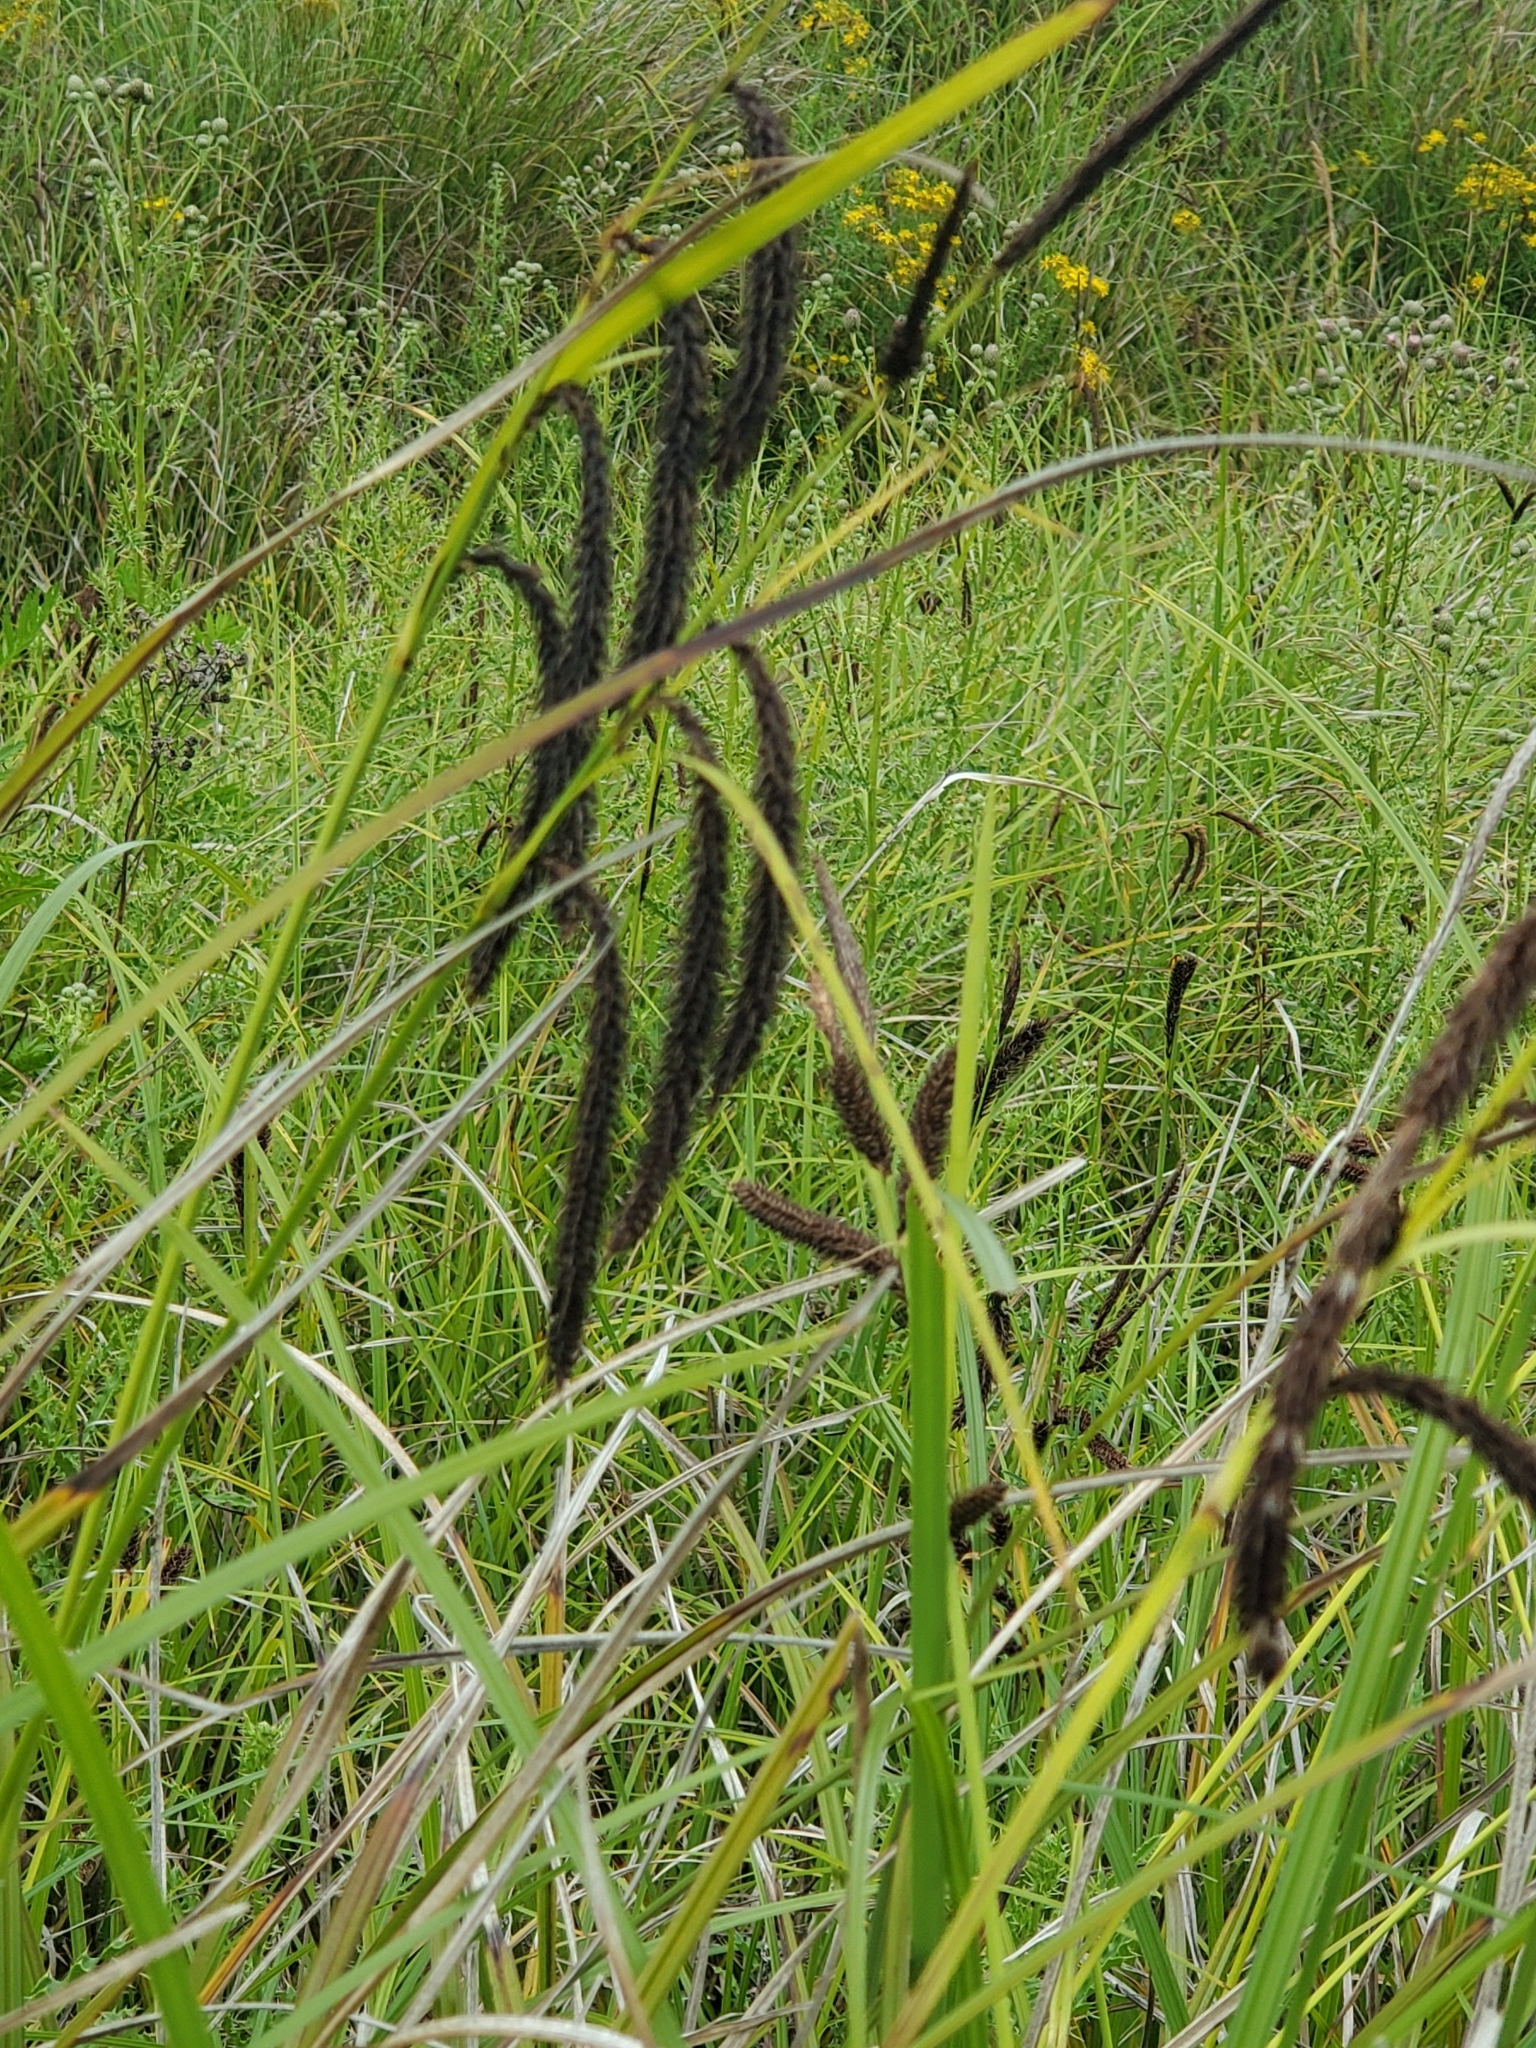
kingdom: Plantae
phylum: Tracheophyta
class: Liliopsida
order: Poales
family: Cyperaceae
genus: Carex
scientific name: Carex obnupta
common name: Slough sedge
